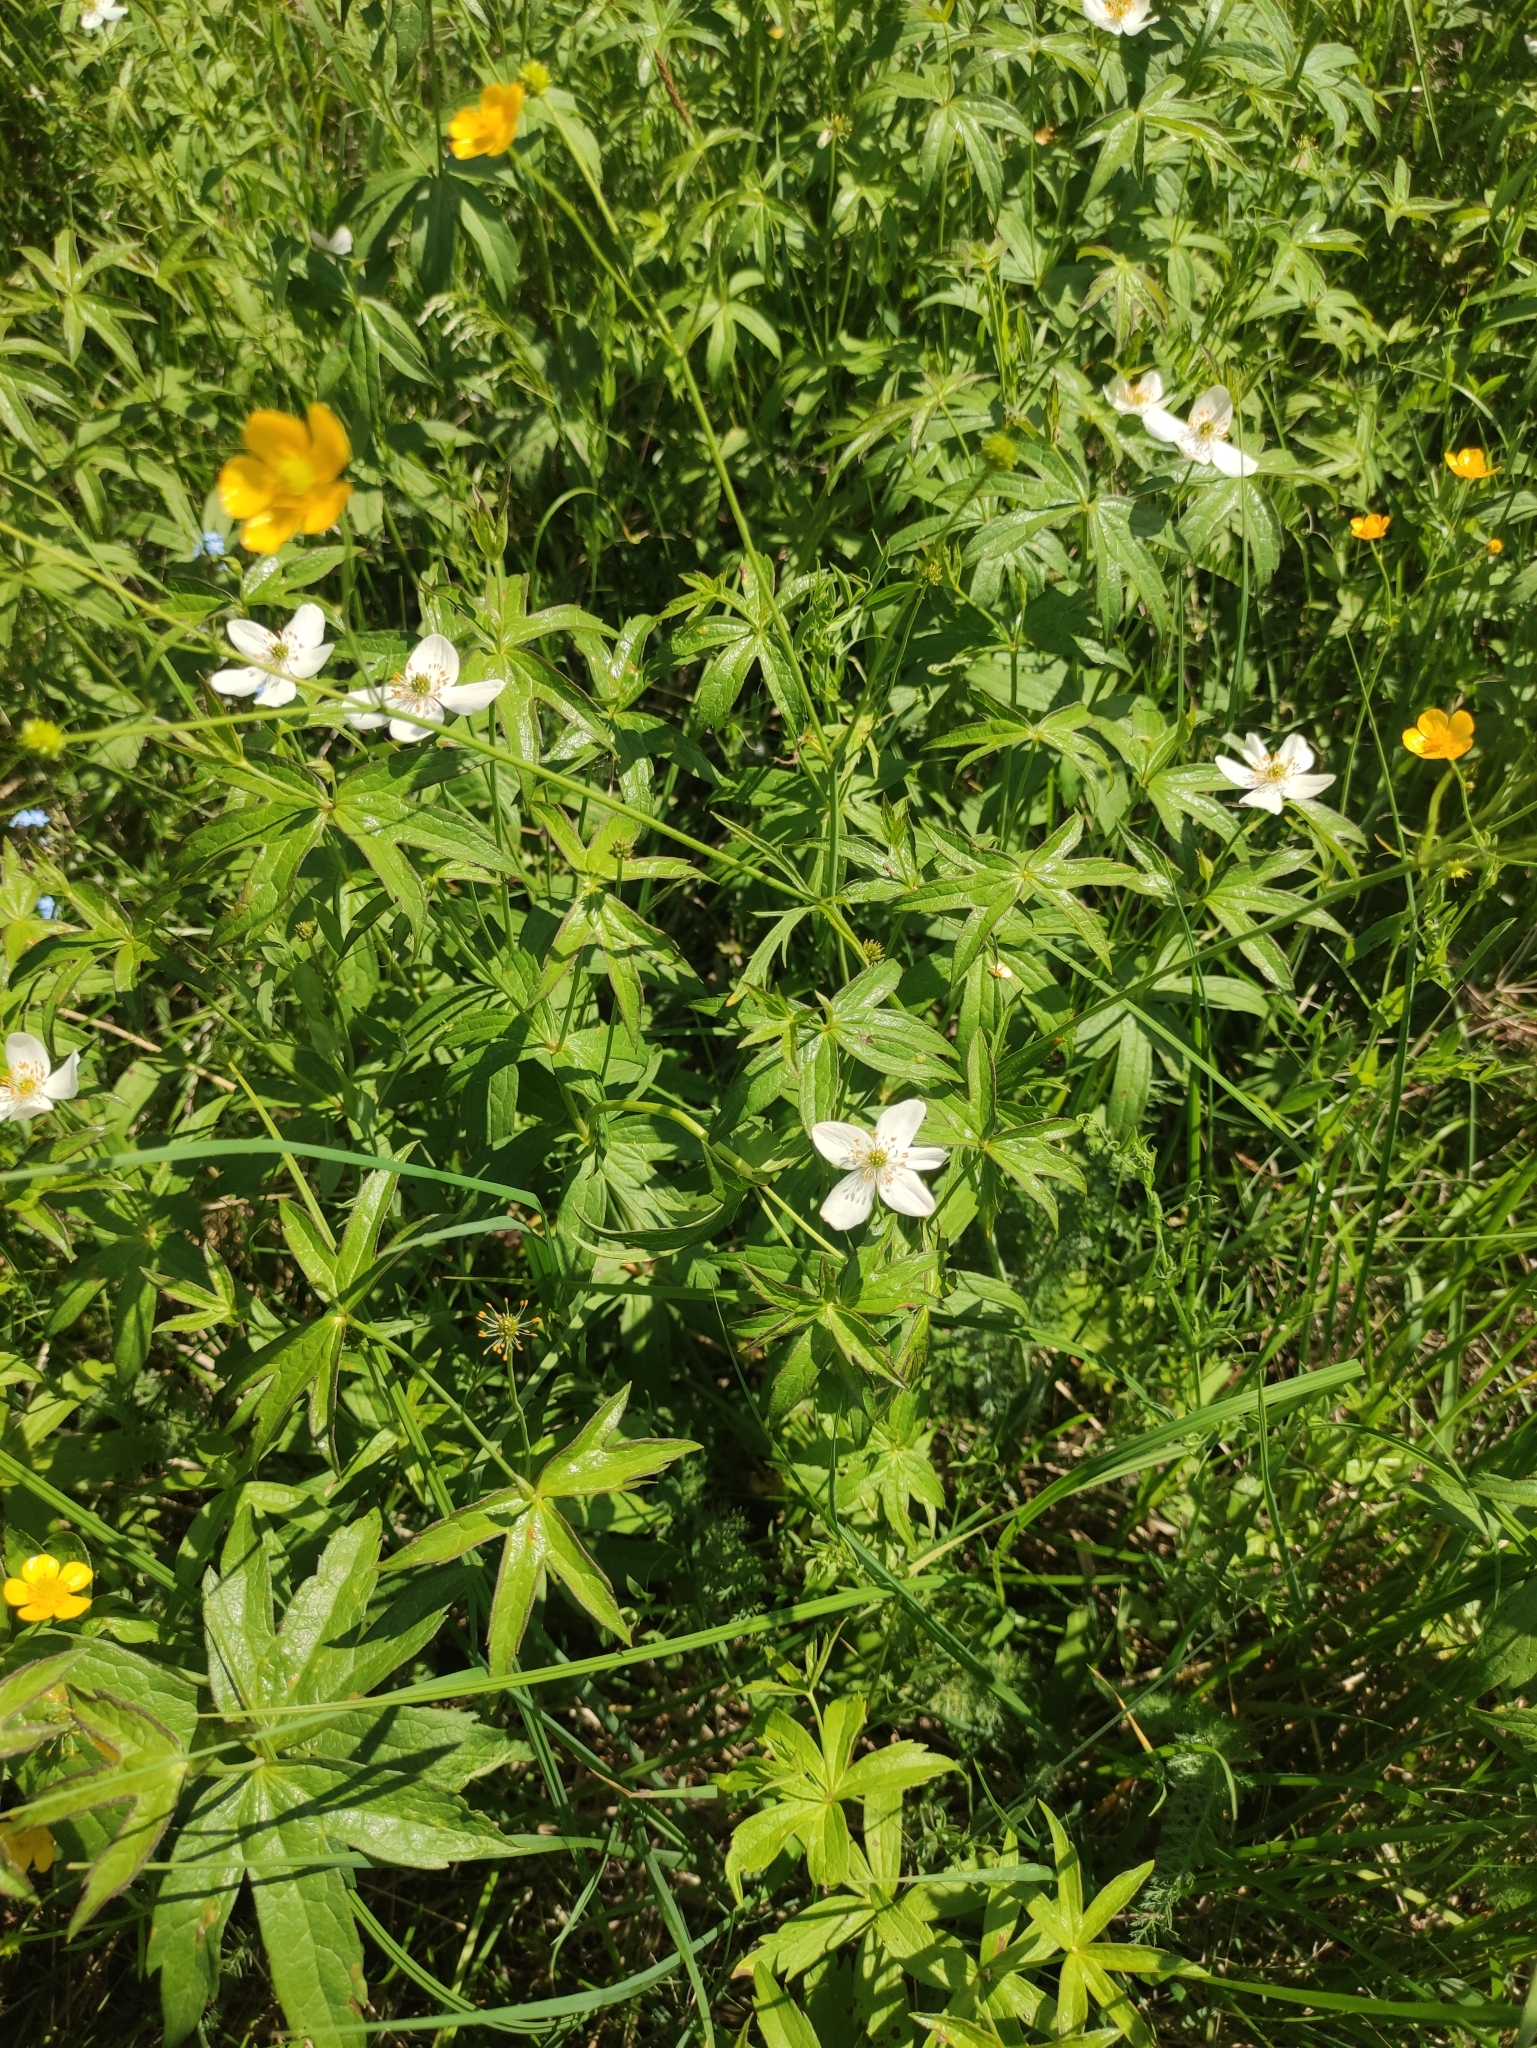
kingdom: Plantae
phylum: Tracheophyta
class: Magnoliopsida
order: Ranunculales
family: Ranunculaceae
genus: Anemonastrum
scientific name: Anemonastrum dichotomum
